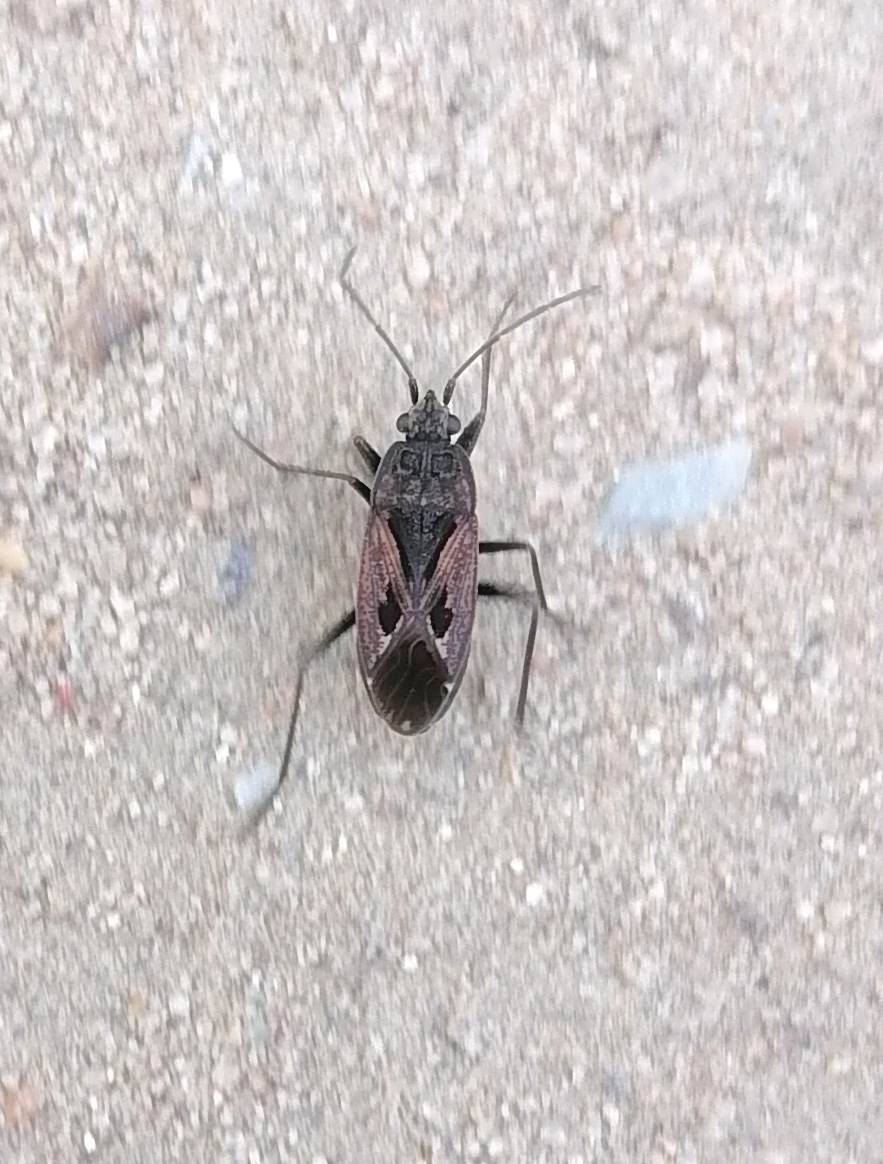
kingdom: Animalia
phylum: Arthropoda
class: Insecta
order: Hemiptera
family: Rhyparochromidae
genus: Rhyparochromus
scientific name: Rhyparochromus pini
